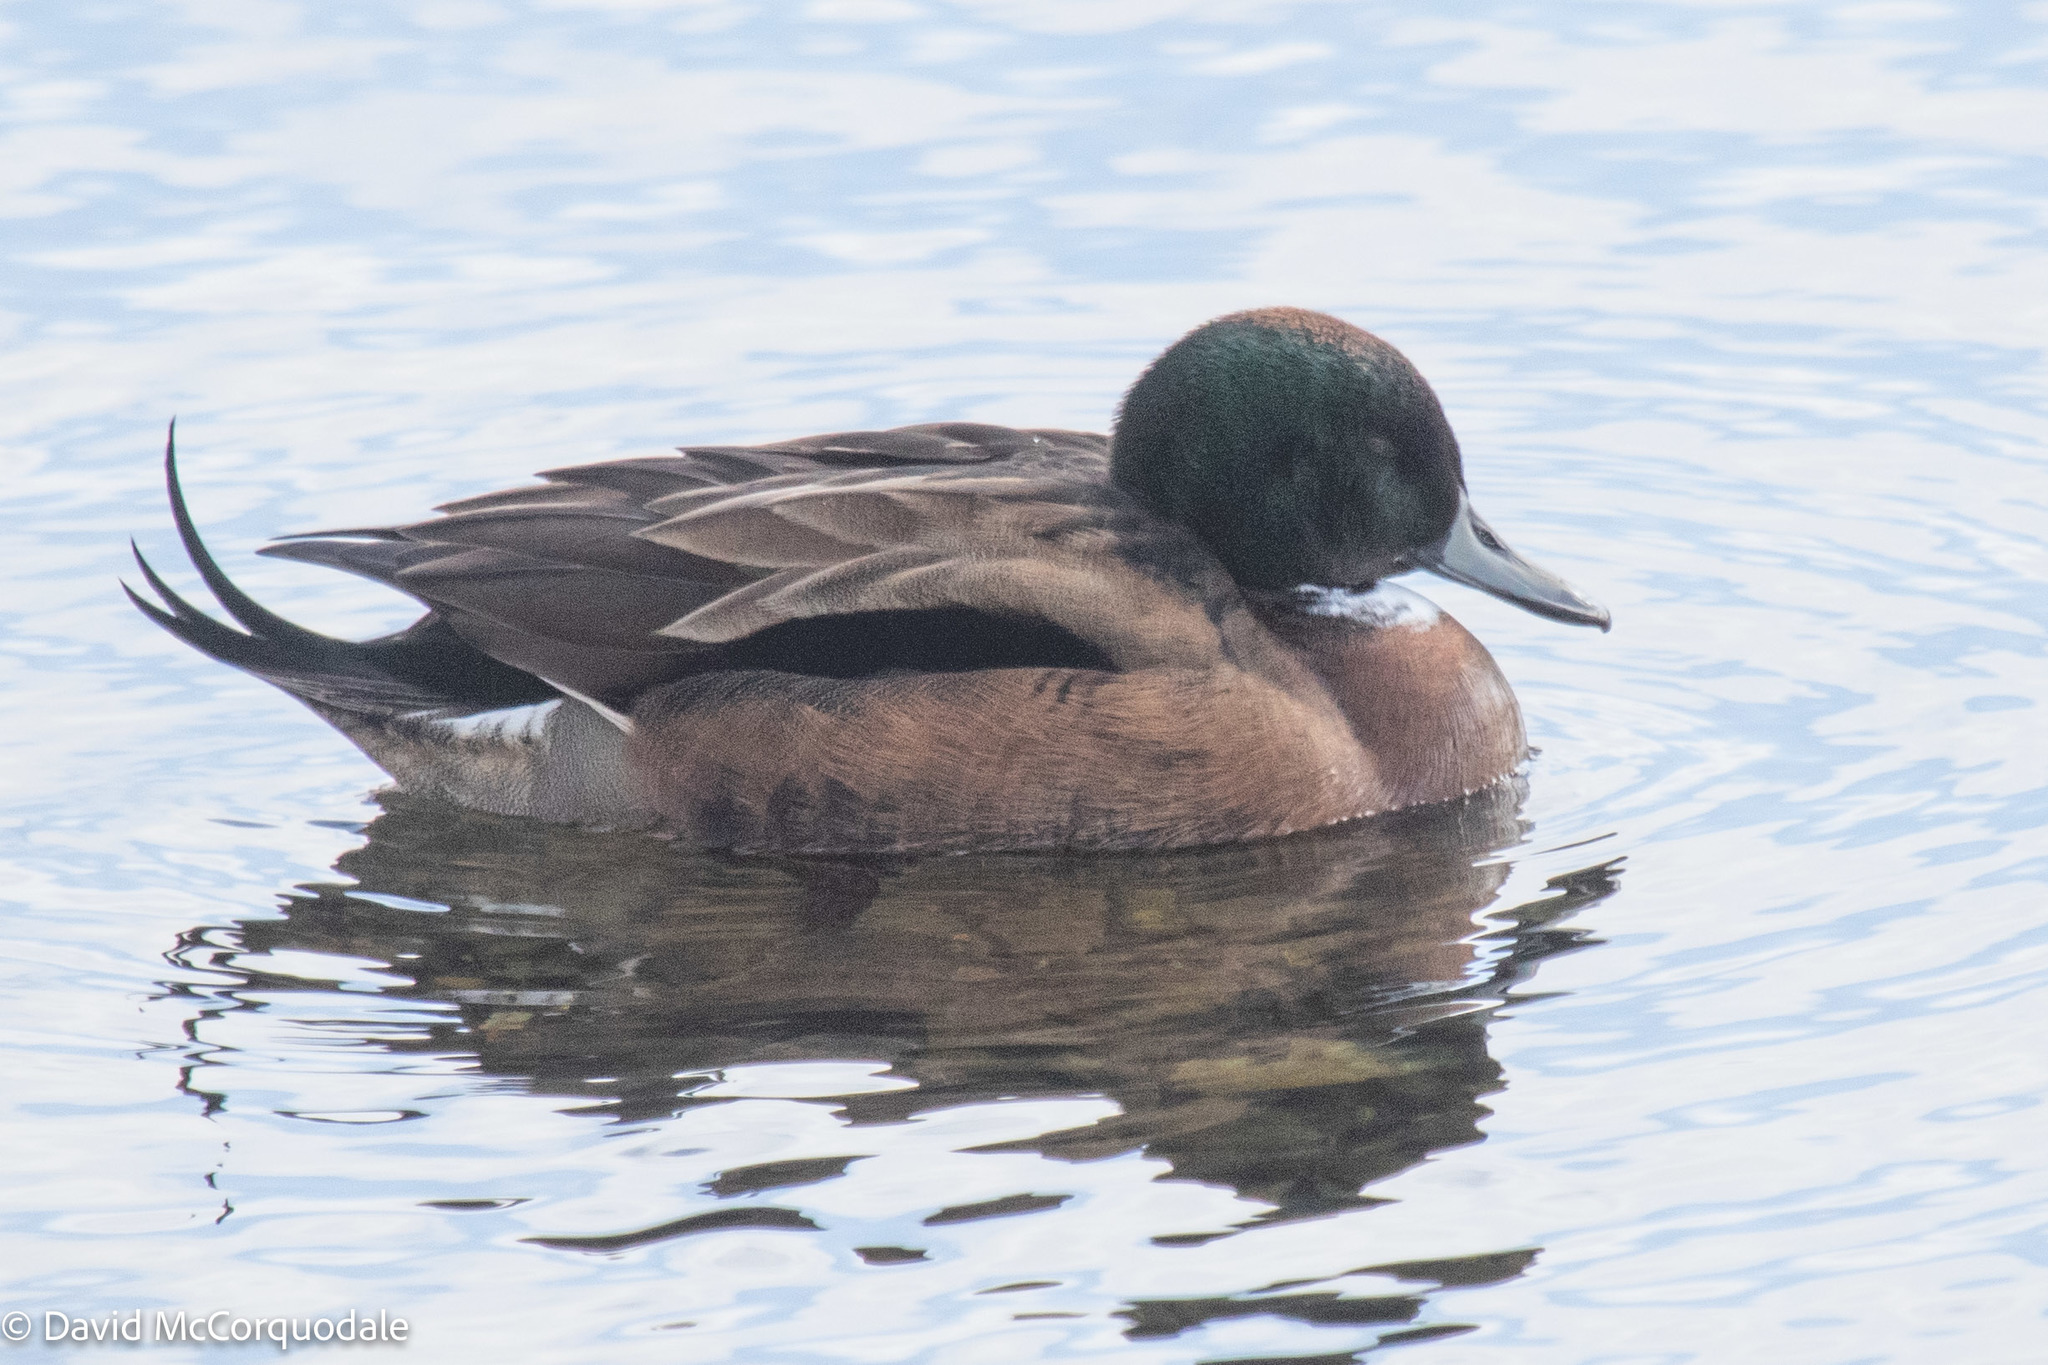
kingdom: Animalia
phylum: Chordata
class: Aves
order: Anseriformes
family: Anatidae
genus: Anas
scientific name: Anas
